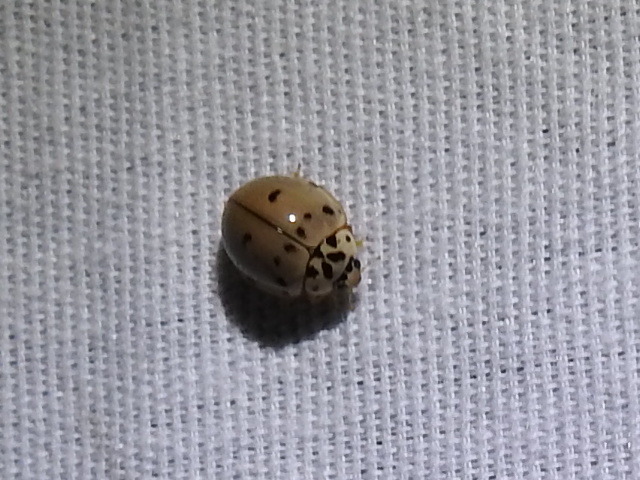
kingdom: Animalia
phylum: Arthropoda
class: Insecta
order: Coleoptera
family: Coccinellidae
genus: Olla
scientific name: Olla v-nigrum
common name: Ashy gray lady beetle
